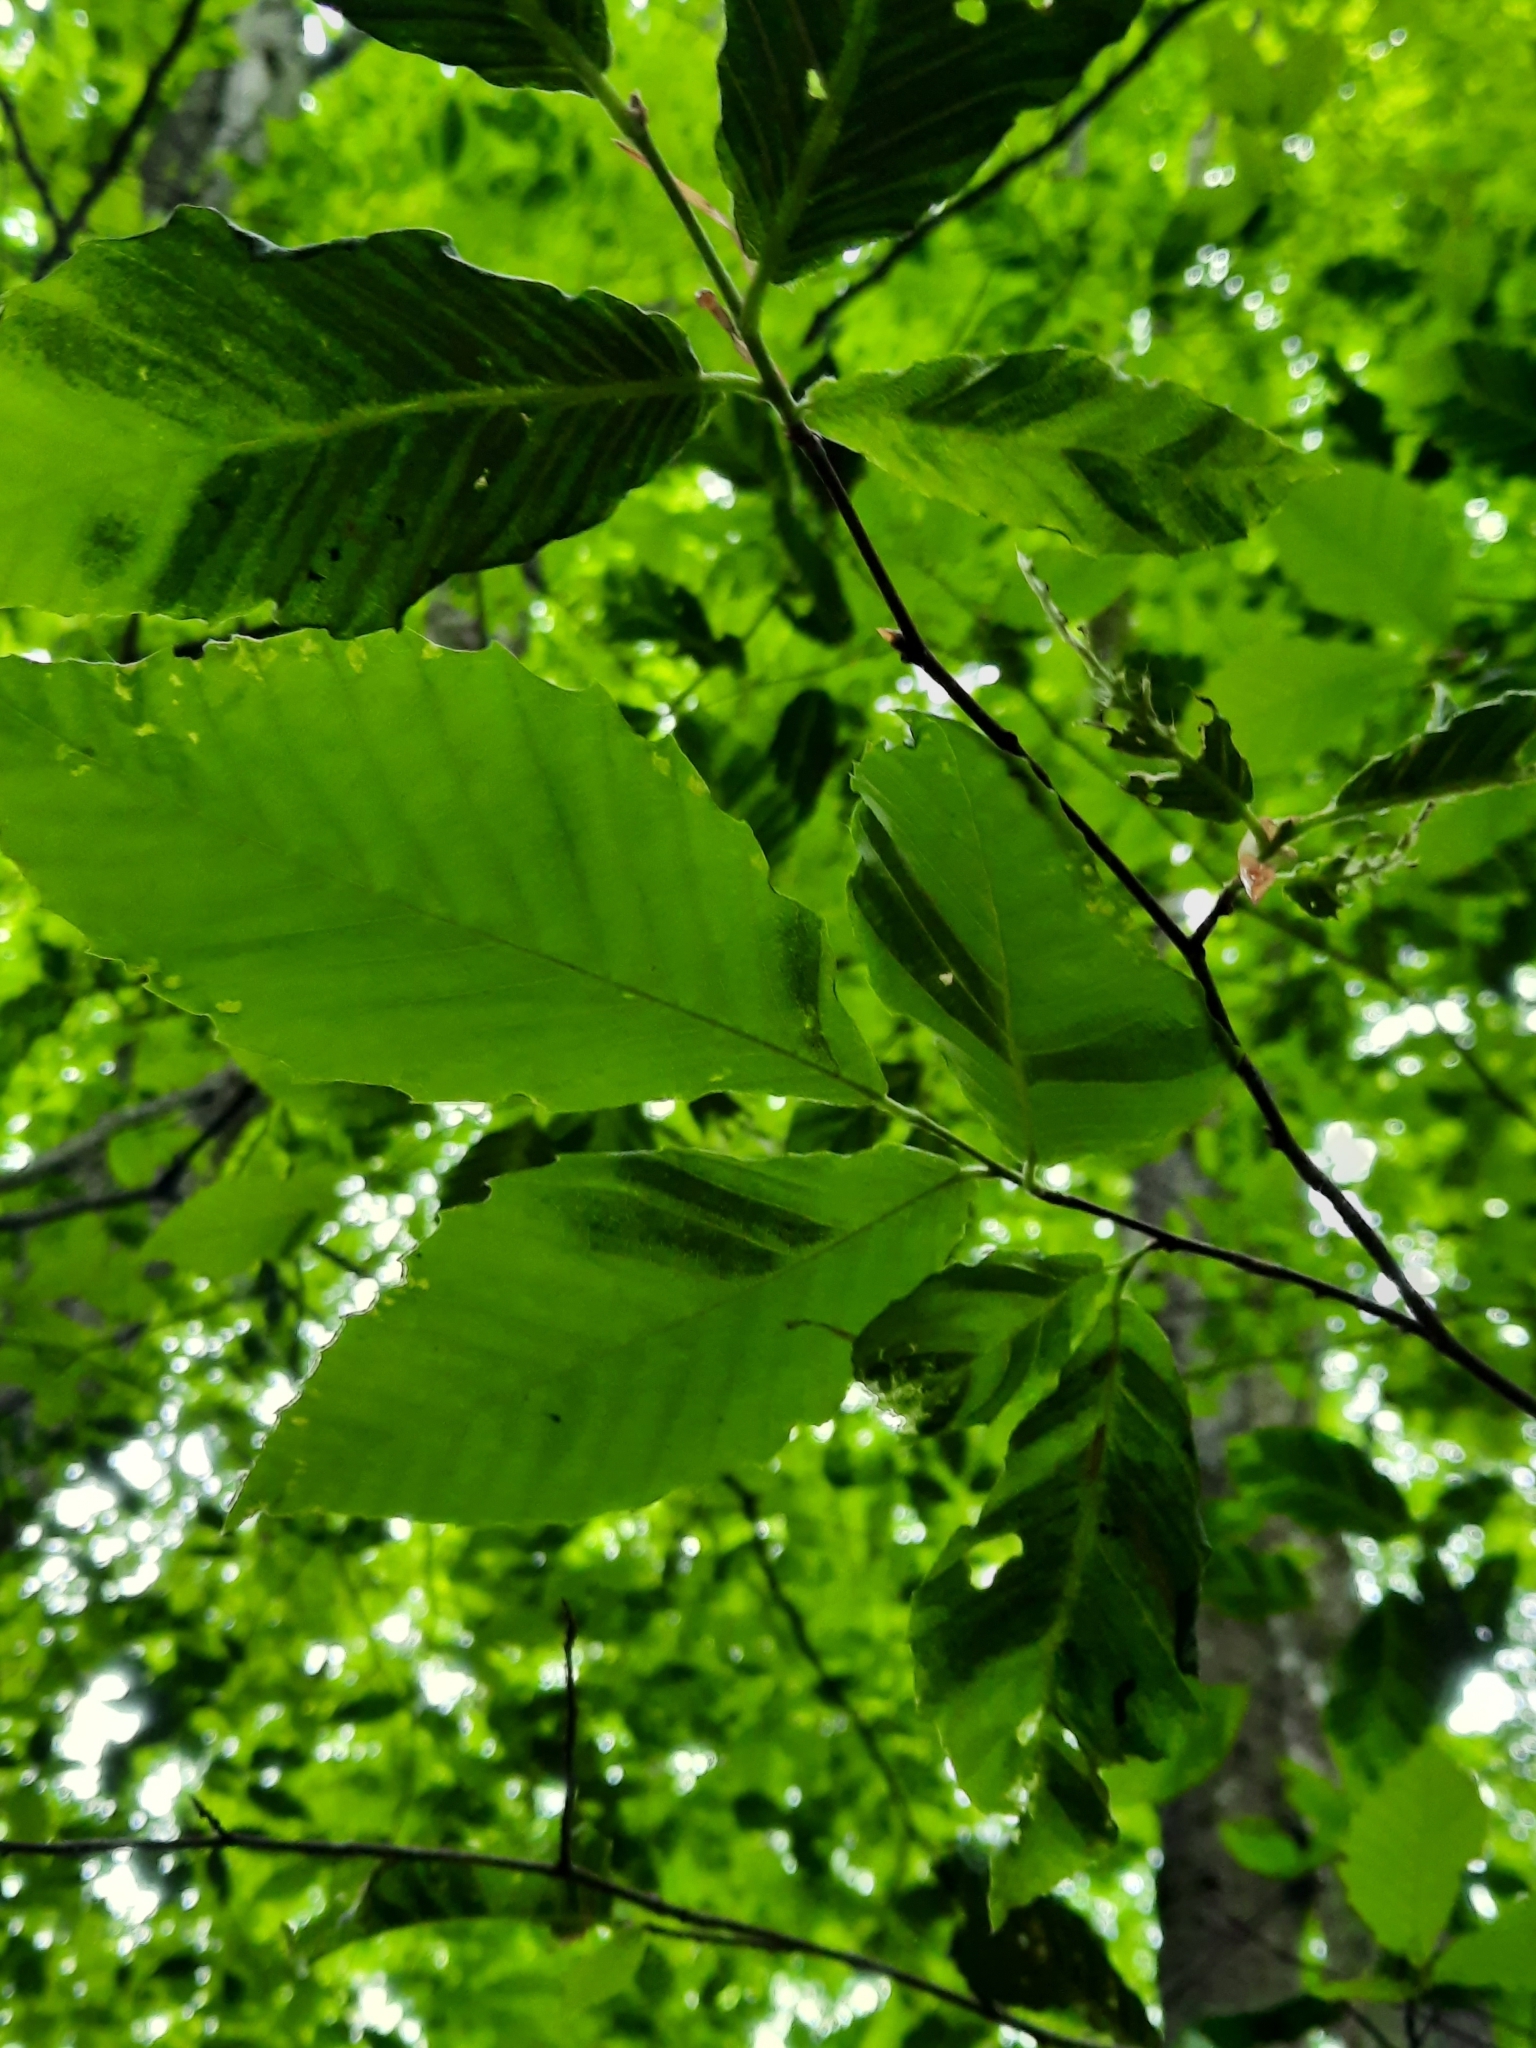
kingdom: Animalia
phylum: Nematoda
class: Chromadorea
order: Rhabditida
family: Anguinidae
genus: Litylenchus
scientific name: Litylenchus crenatae
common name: Beech leaf disease
